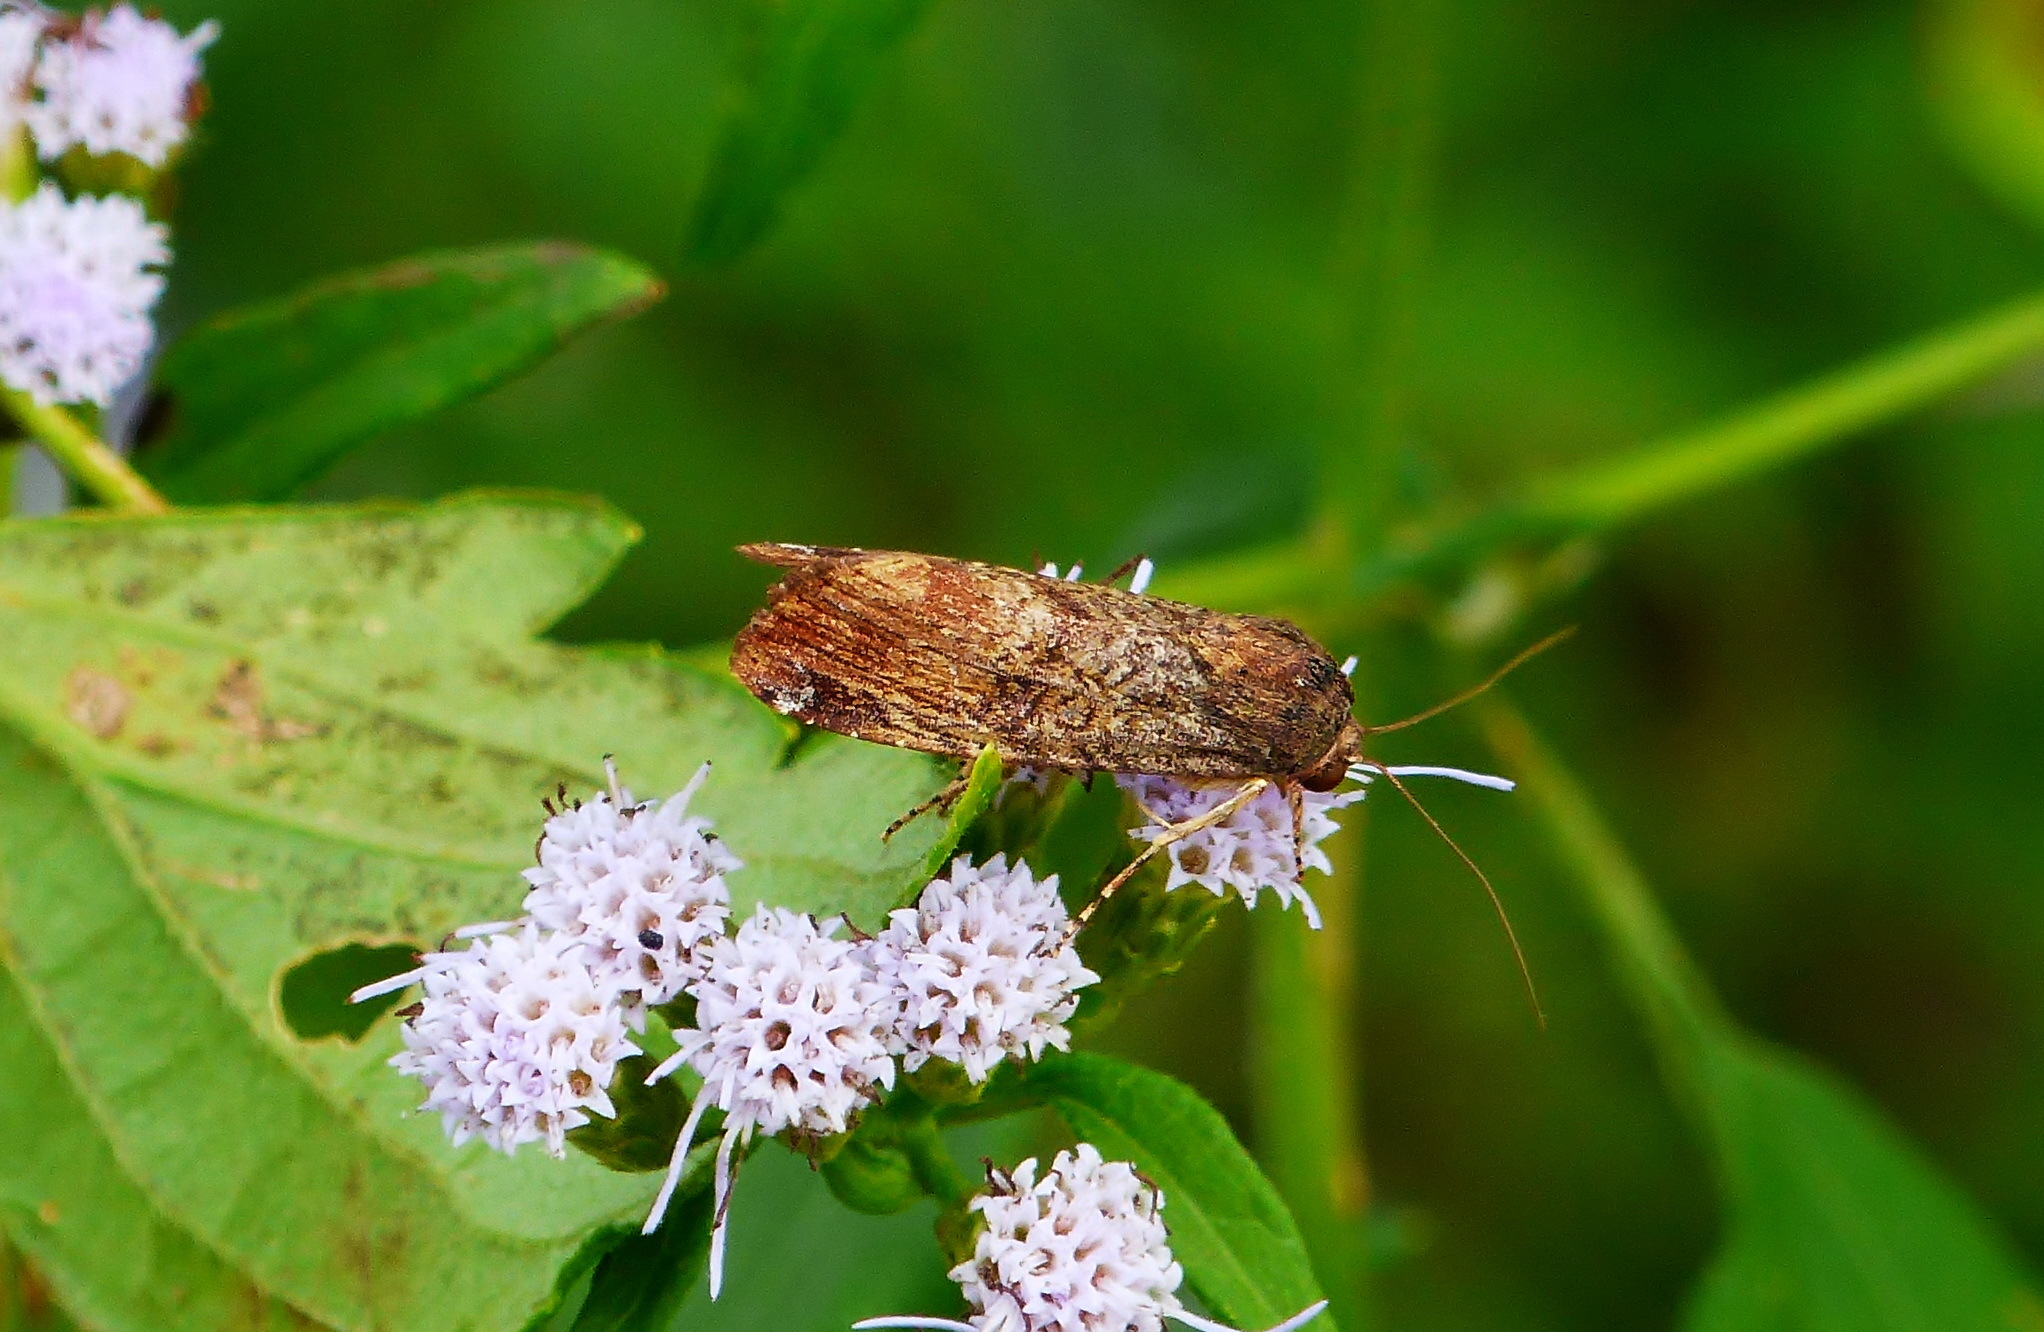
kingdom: Animalia
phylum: Arthropoda
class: Insecta
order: Lepidoptera
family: Noctuidae
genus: Magusa
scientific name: Magusa divaricata
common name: Orb narrow-winged moth
